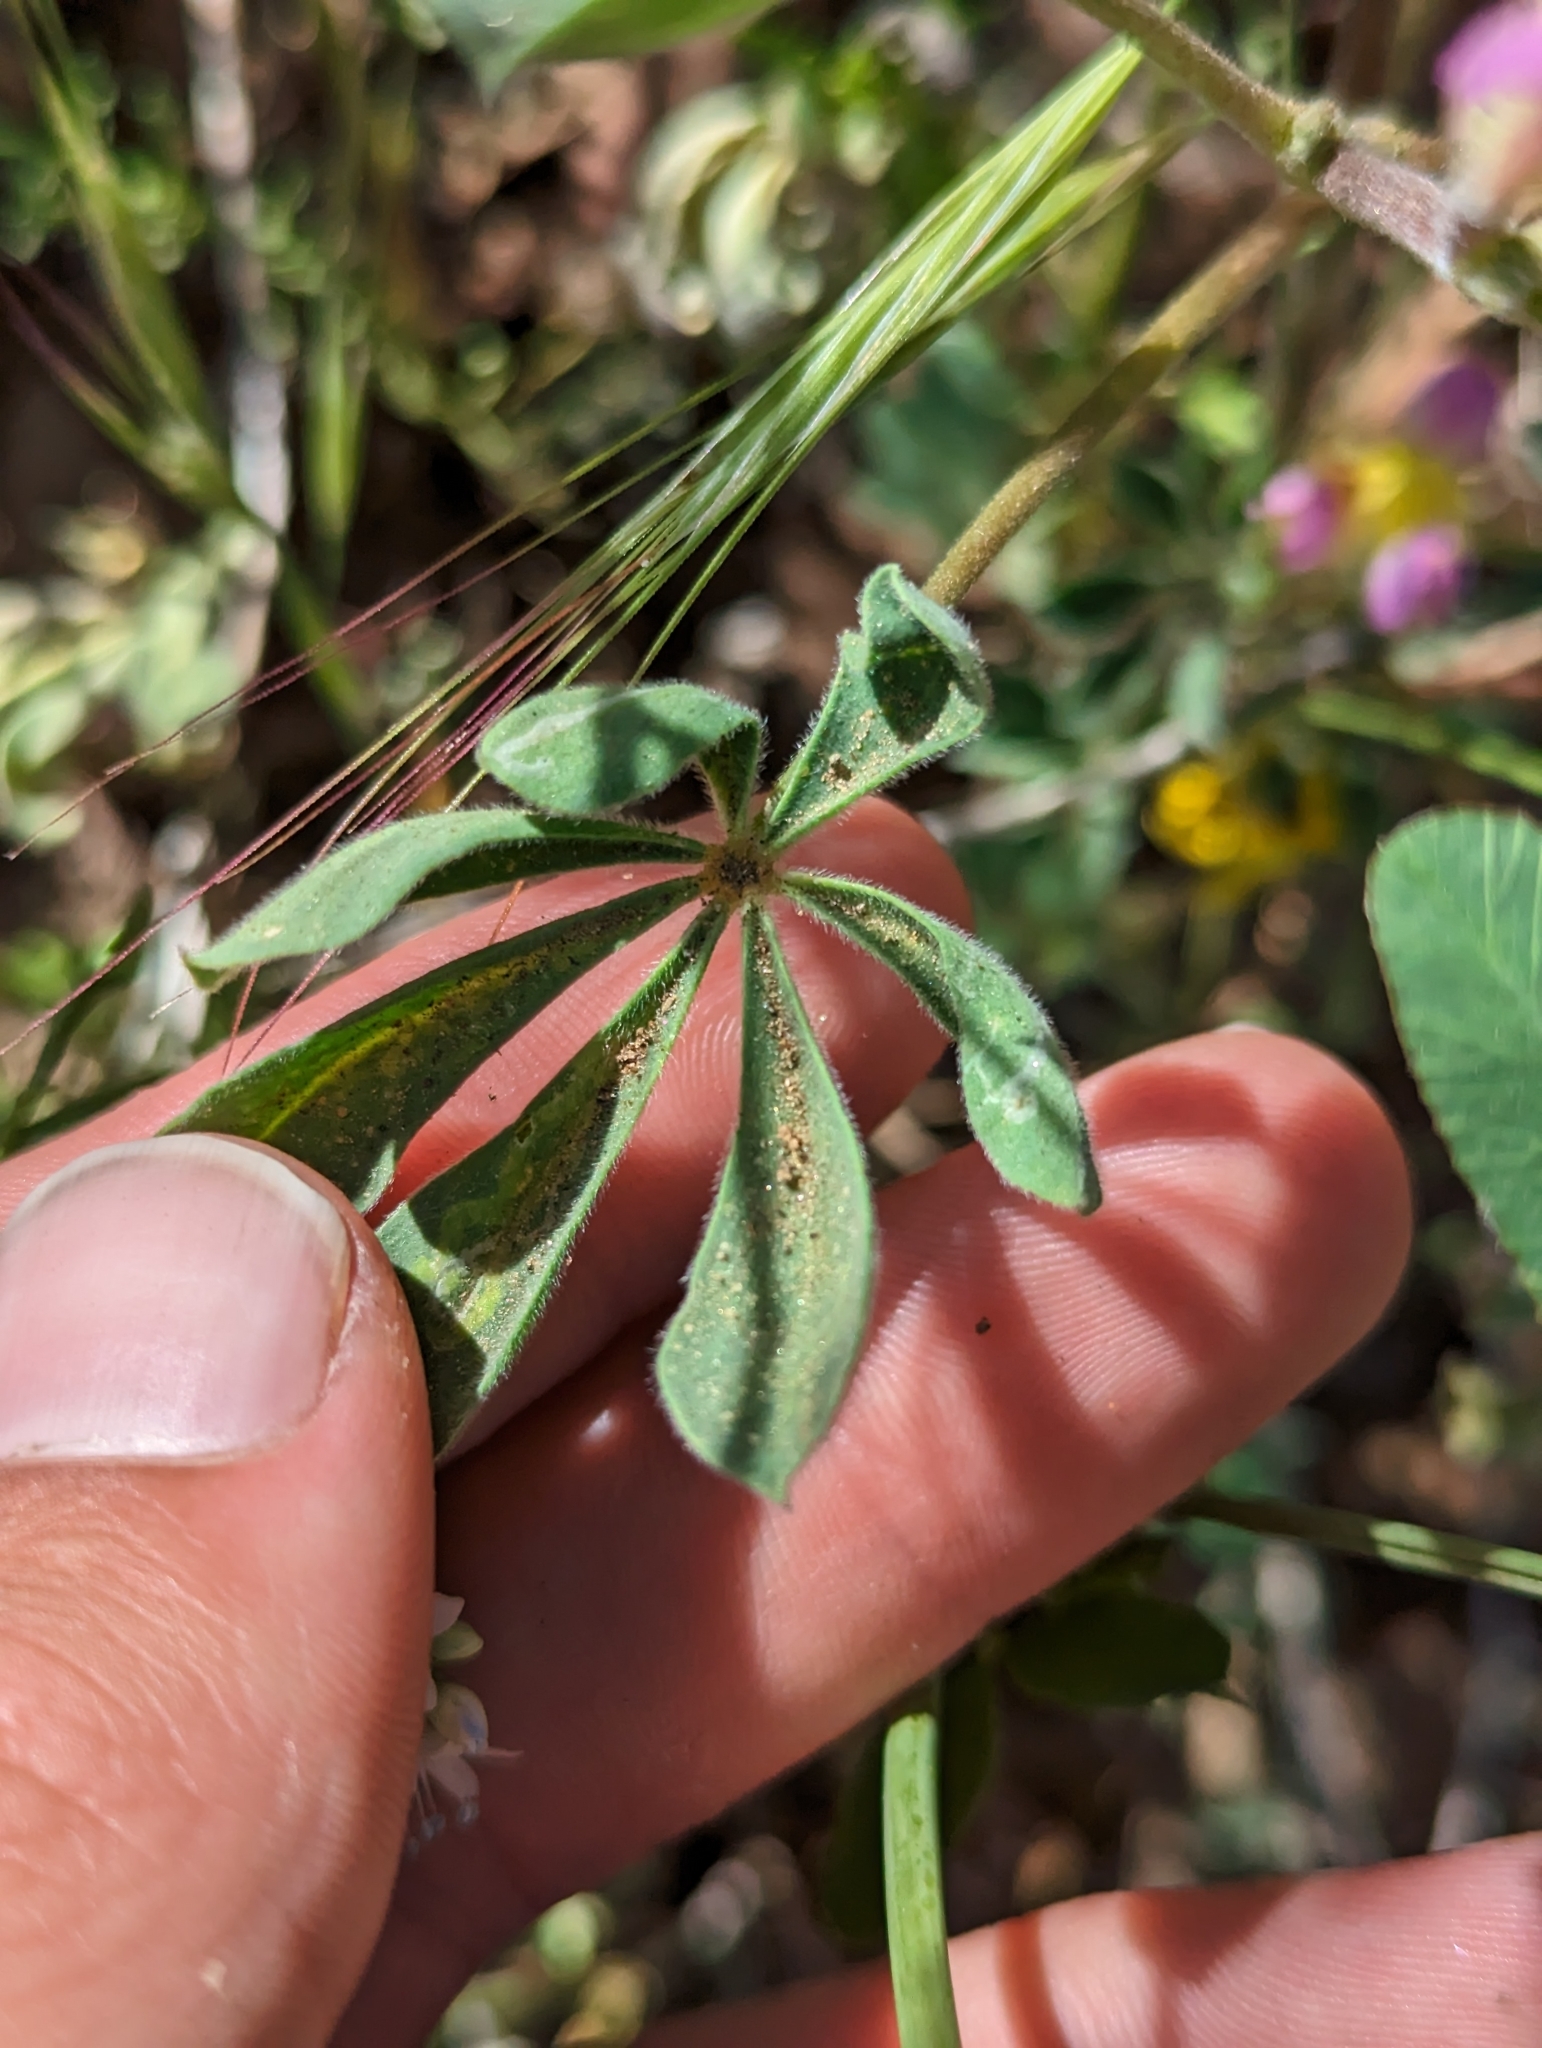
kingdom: Plantae
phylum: Tracheophyta
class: Magnoliopsida
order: Fabales
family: Fabaceae
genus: Lupinus
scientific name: Lupinus stiversii
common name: Harlequin lupine
